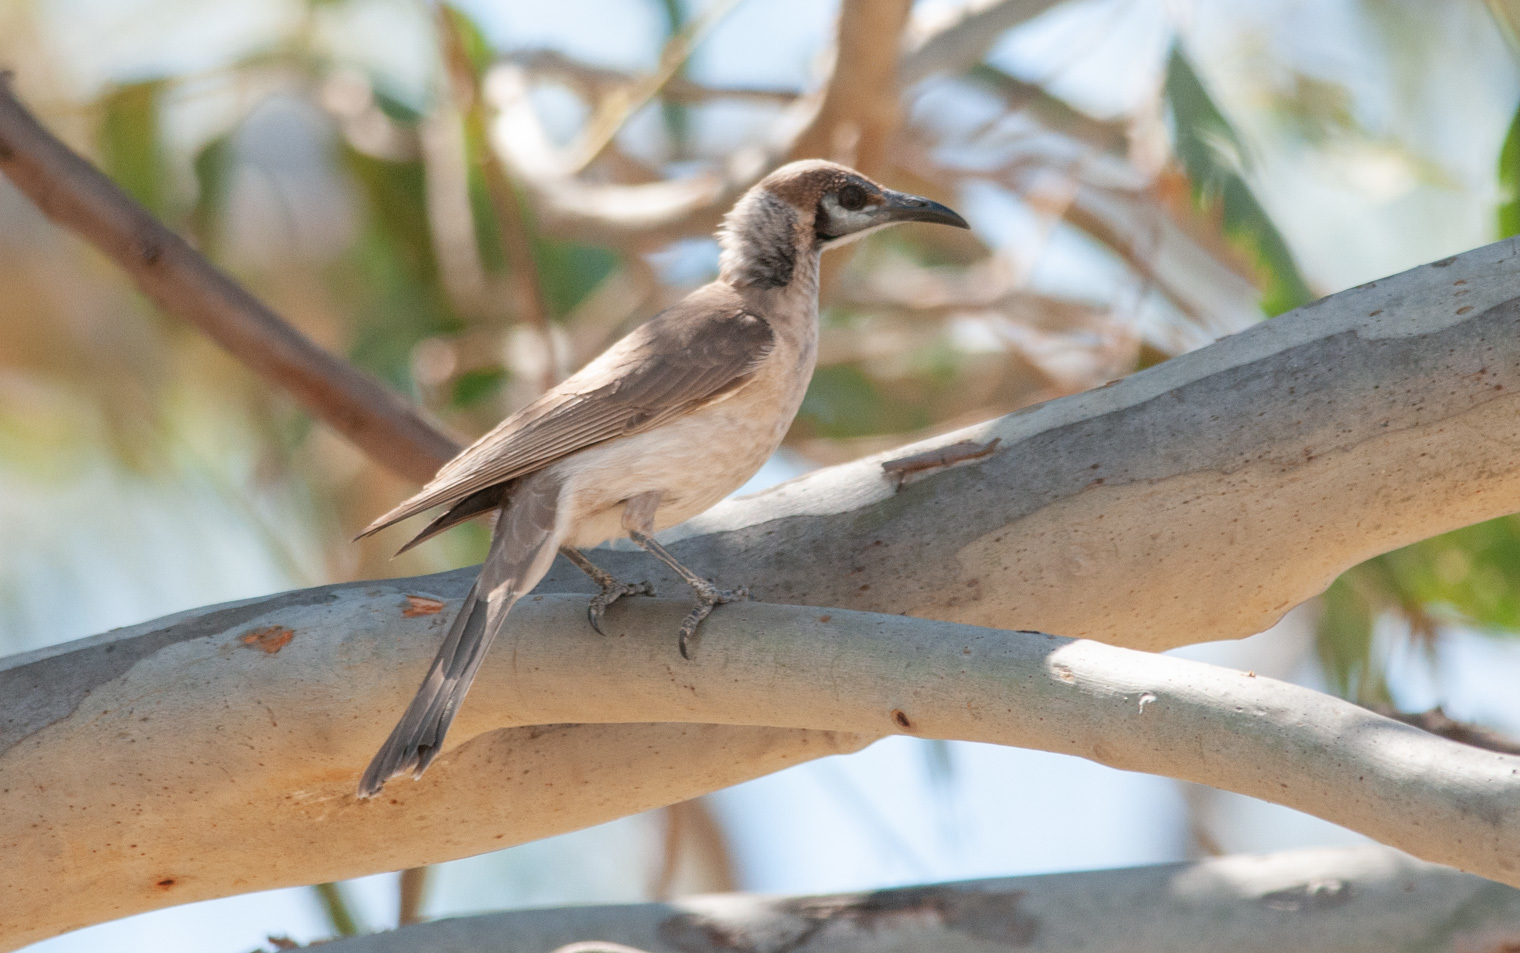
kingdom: Animalia
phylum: Chordata
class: Aves
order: Passeriformes
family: Meliphagidae
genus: Philemon
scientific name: Philemon citreogularis
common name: Little friarbird
